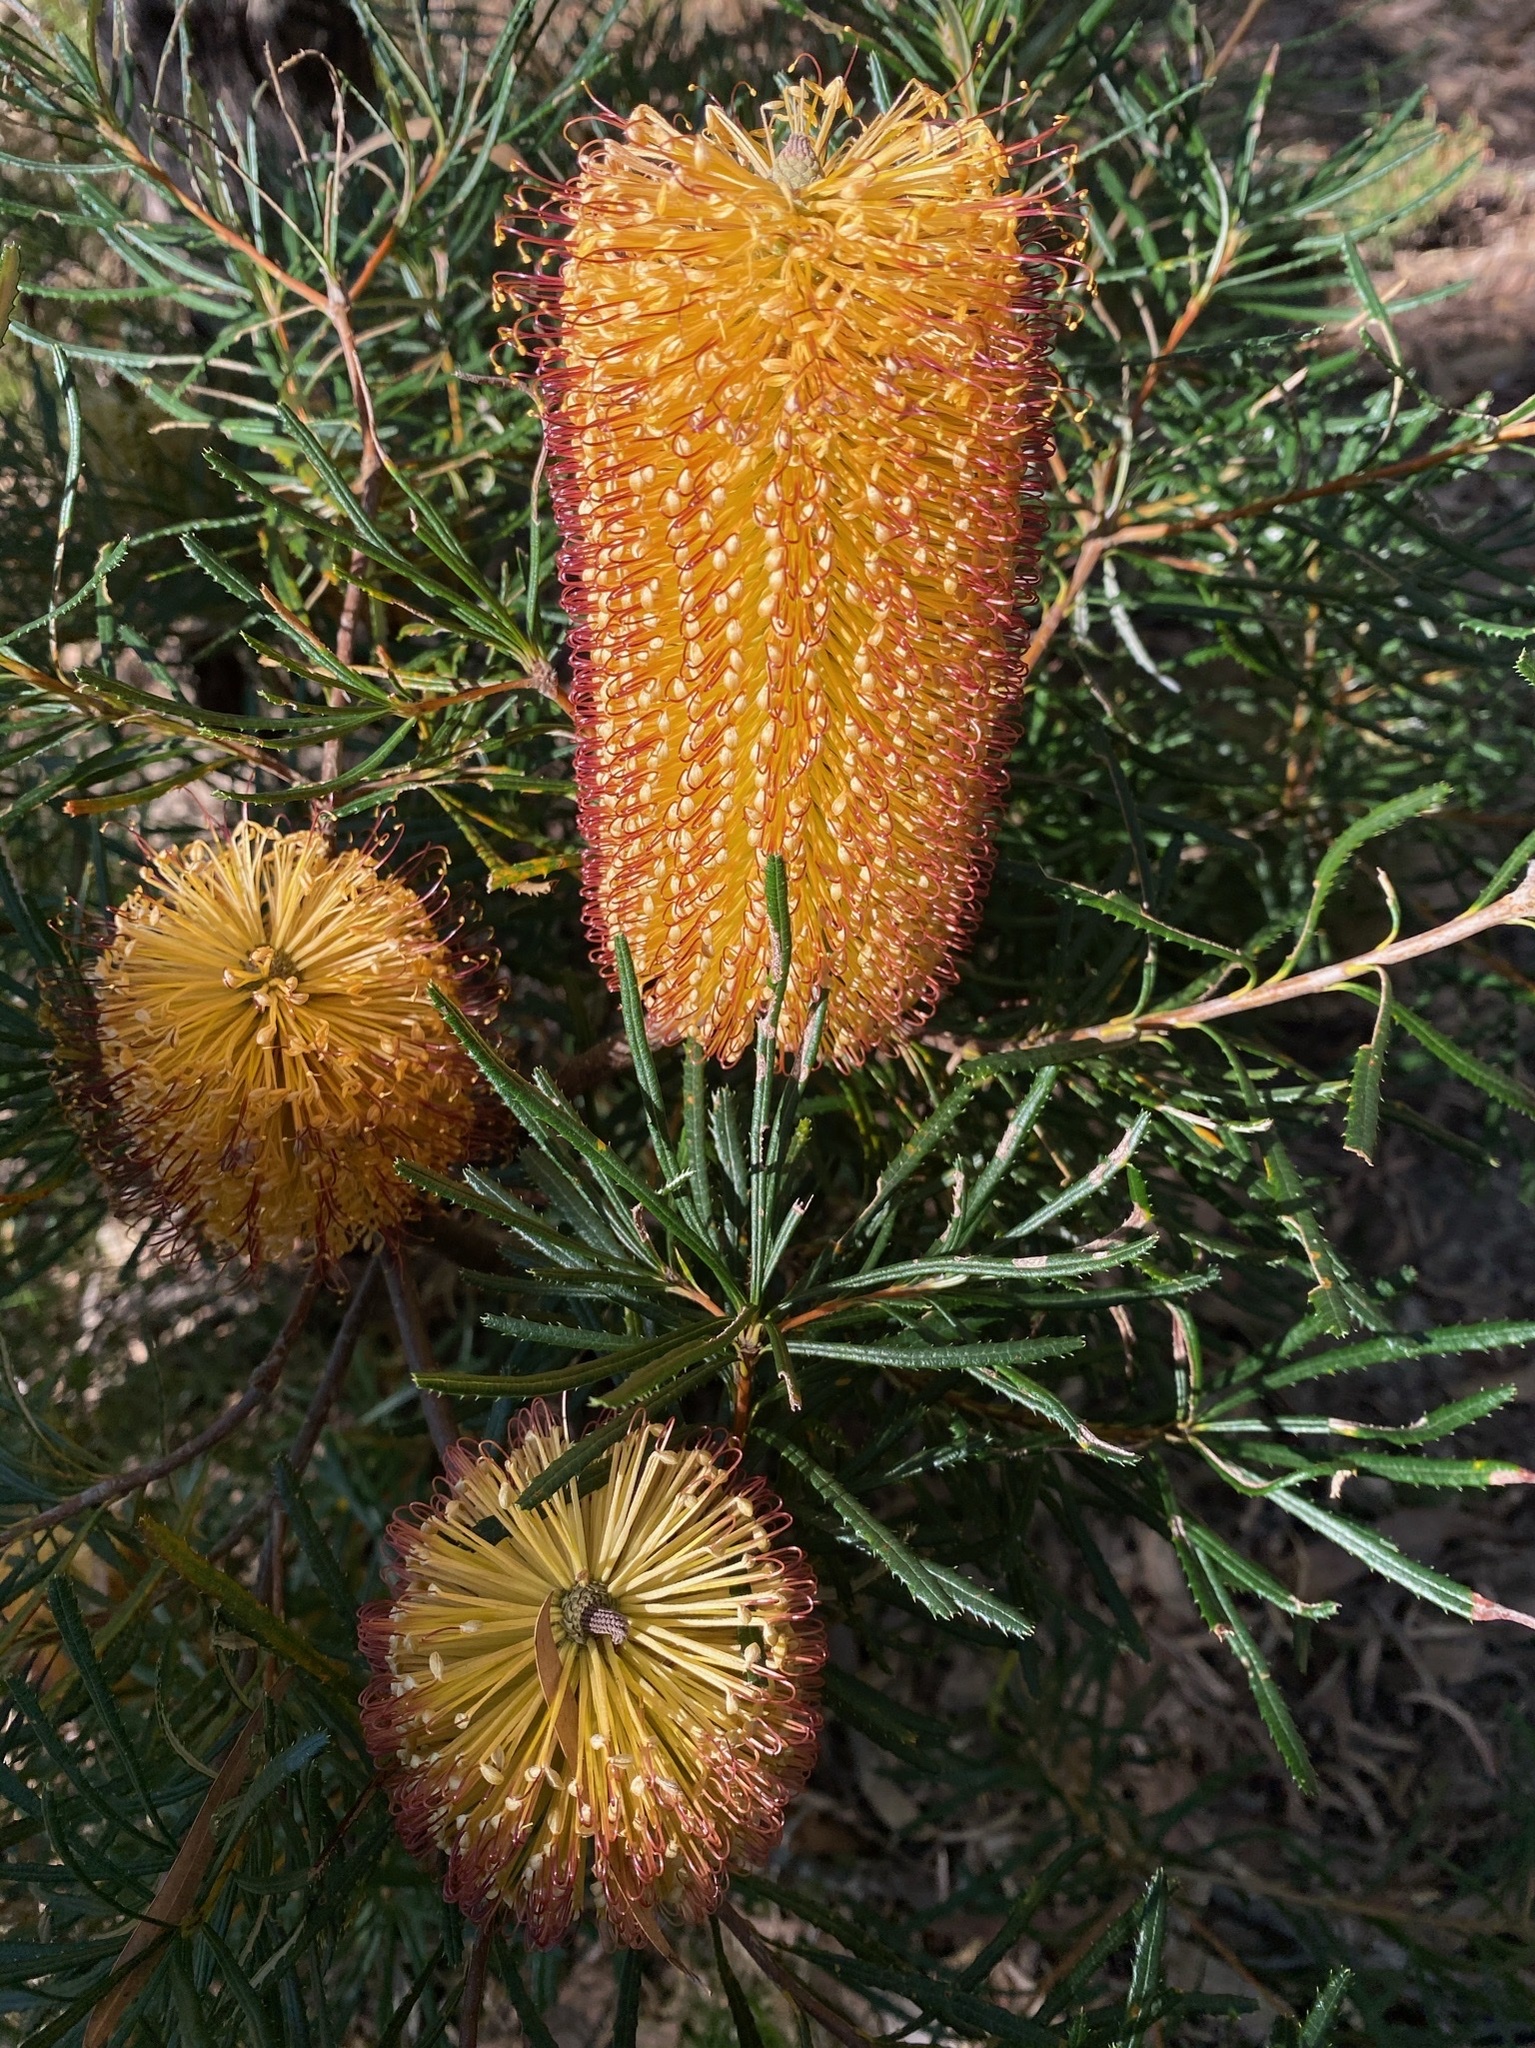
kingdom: Plantae
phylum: Tracheophyta
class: Magnoliopsida
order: Proteales
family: Proteaceae
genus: Banksia
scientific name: Banksia spinulosa
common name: Hairpin banksia
